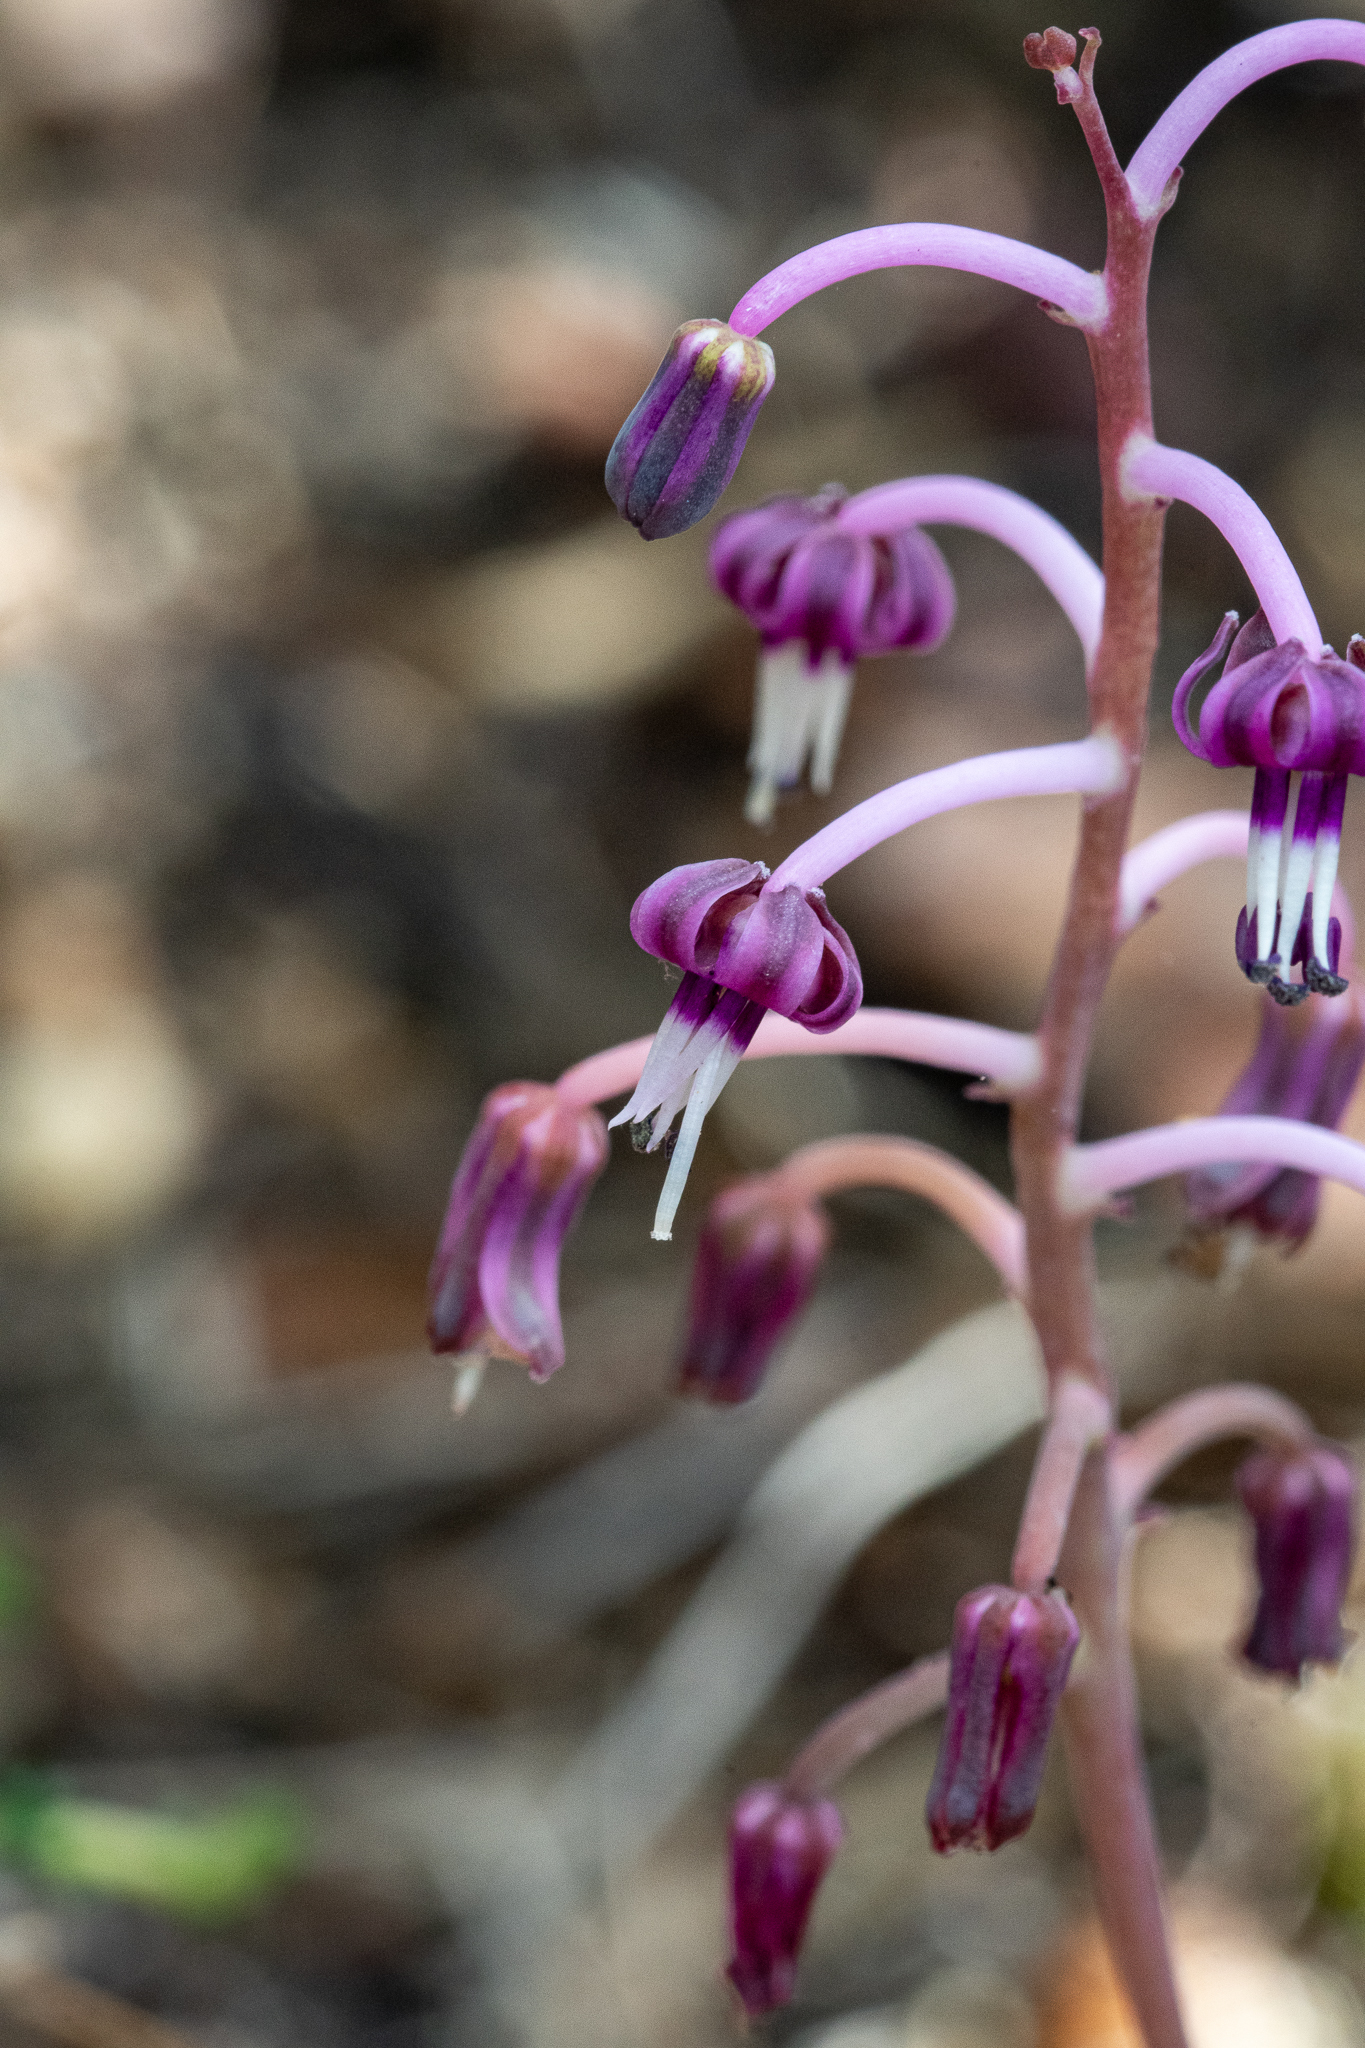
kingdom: Plantae
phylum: Tracheophyta
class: Liliopsida
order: Asparagales
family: Asparagaceae
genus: Ledebouria
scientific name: Ledebouria ovalifolia
